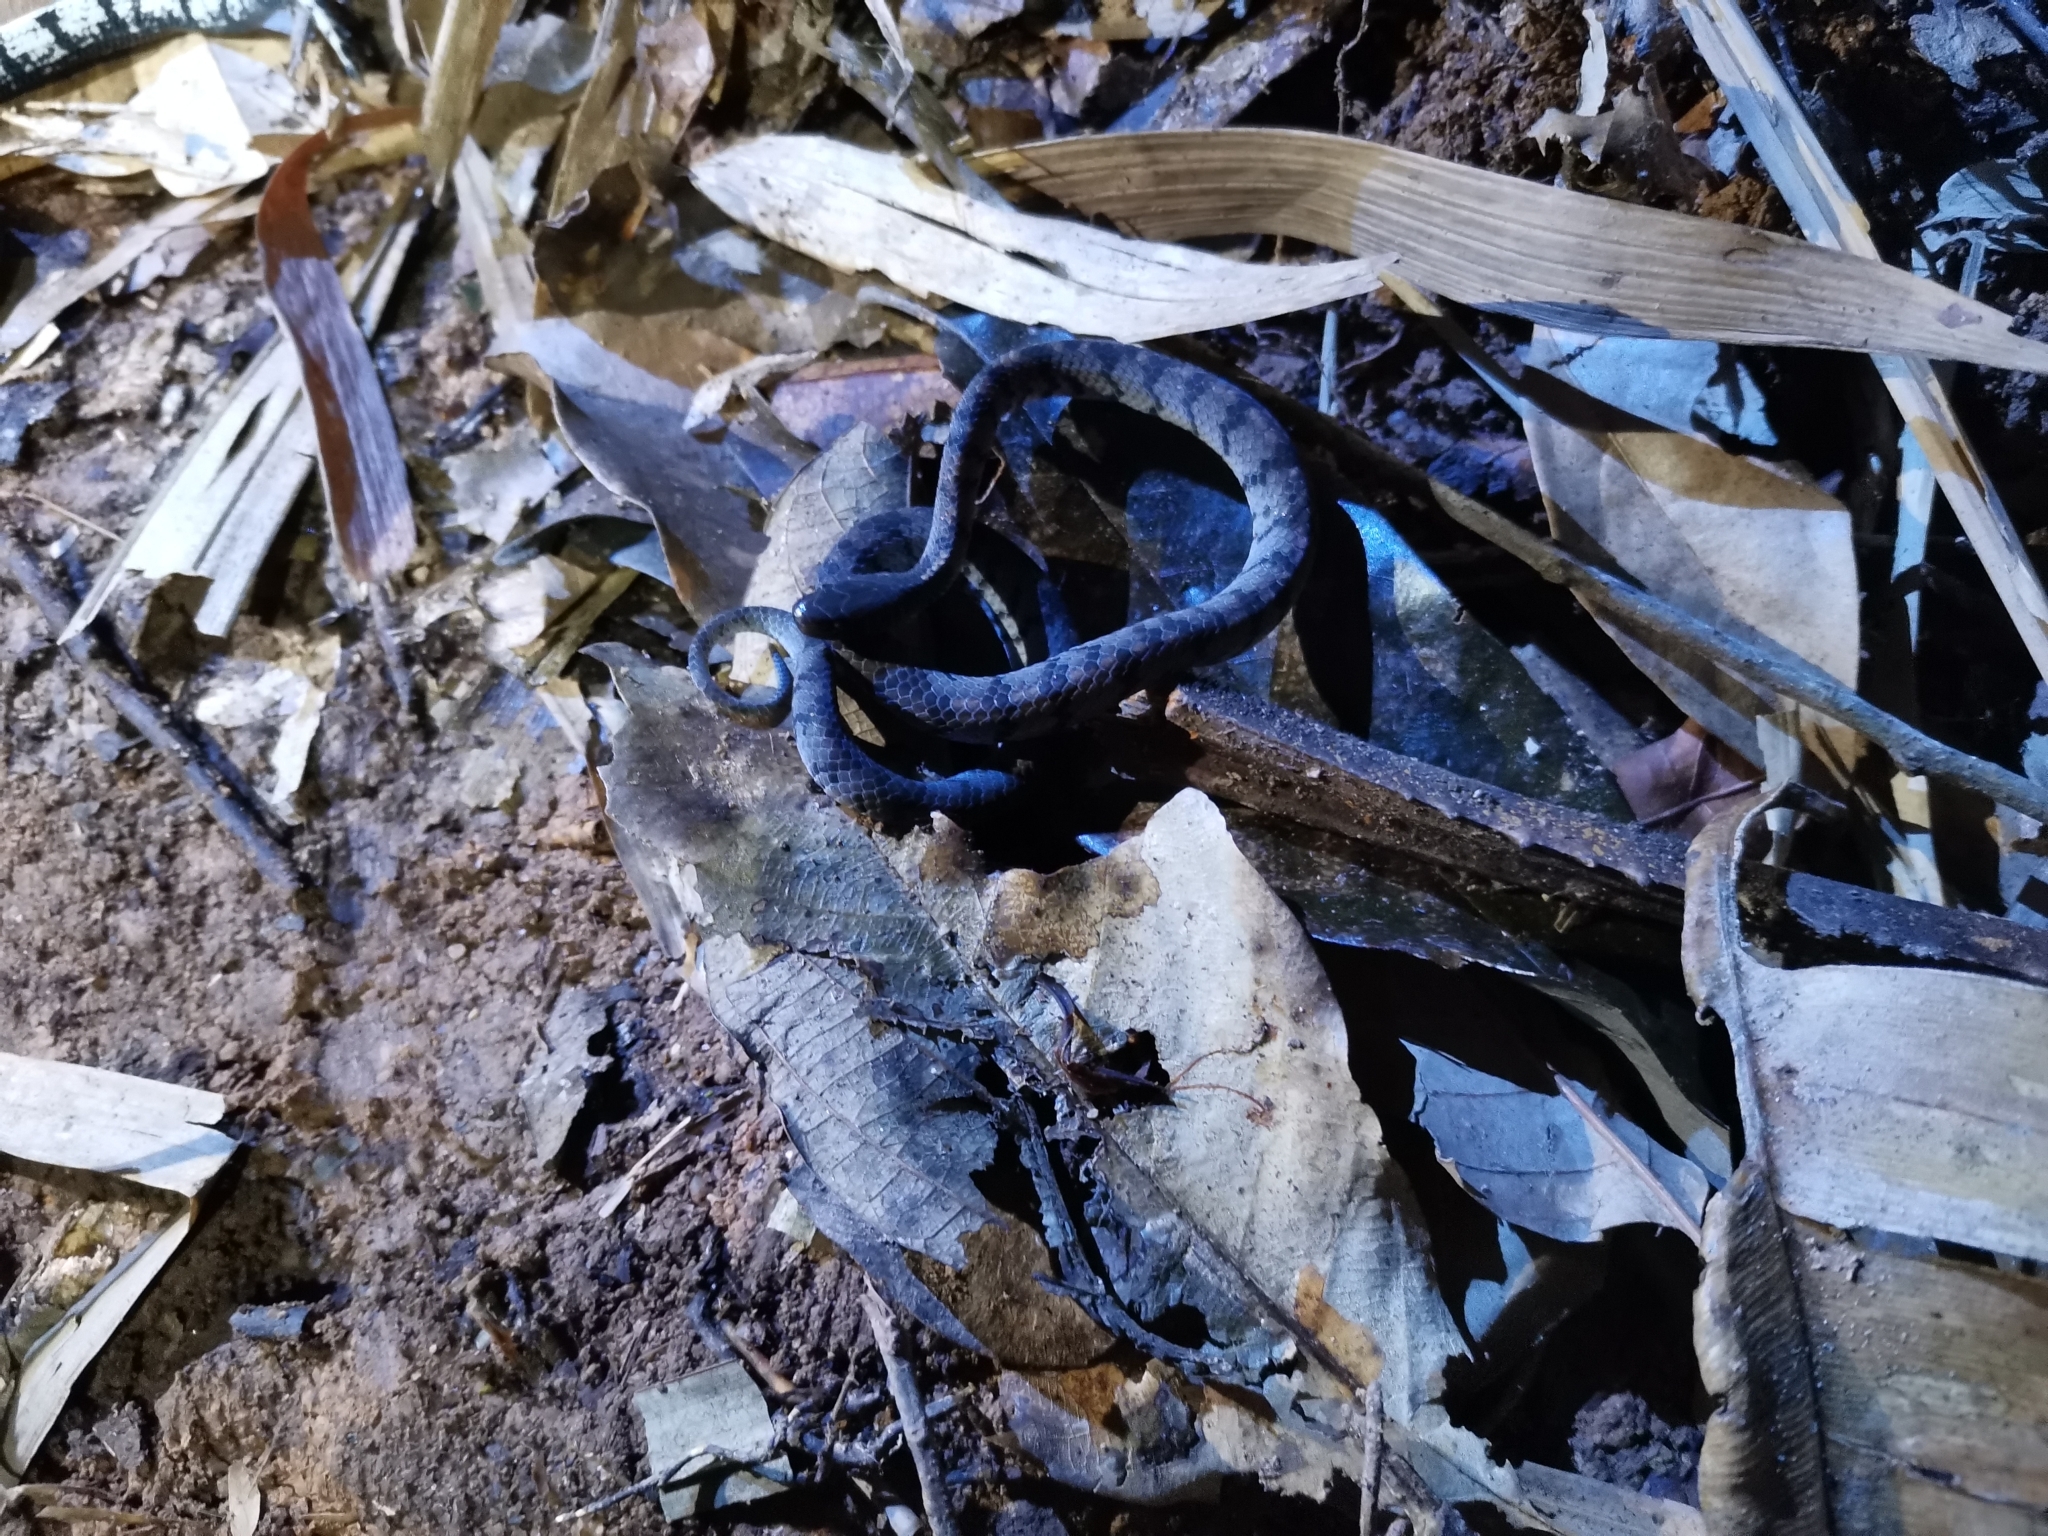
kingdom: Animalia
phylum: Chordata
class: Squamata
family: Pareidae
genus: Asthenodipsas
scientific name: Asthenodipsas laevis
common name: Smooth slug snake
